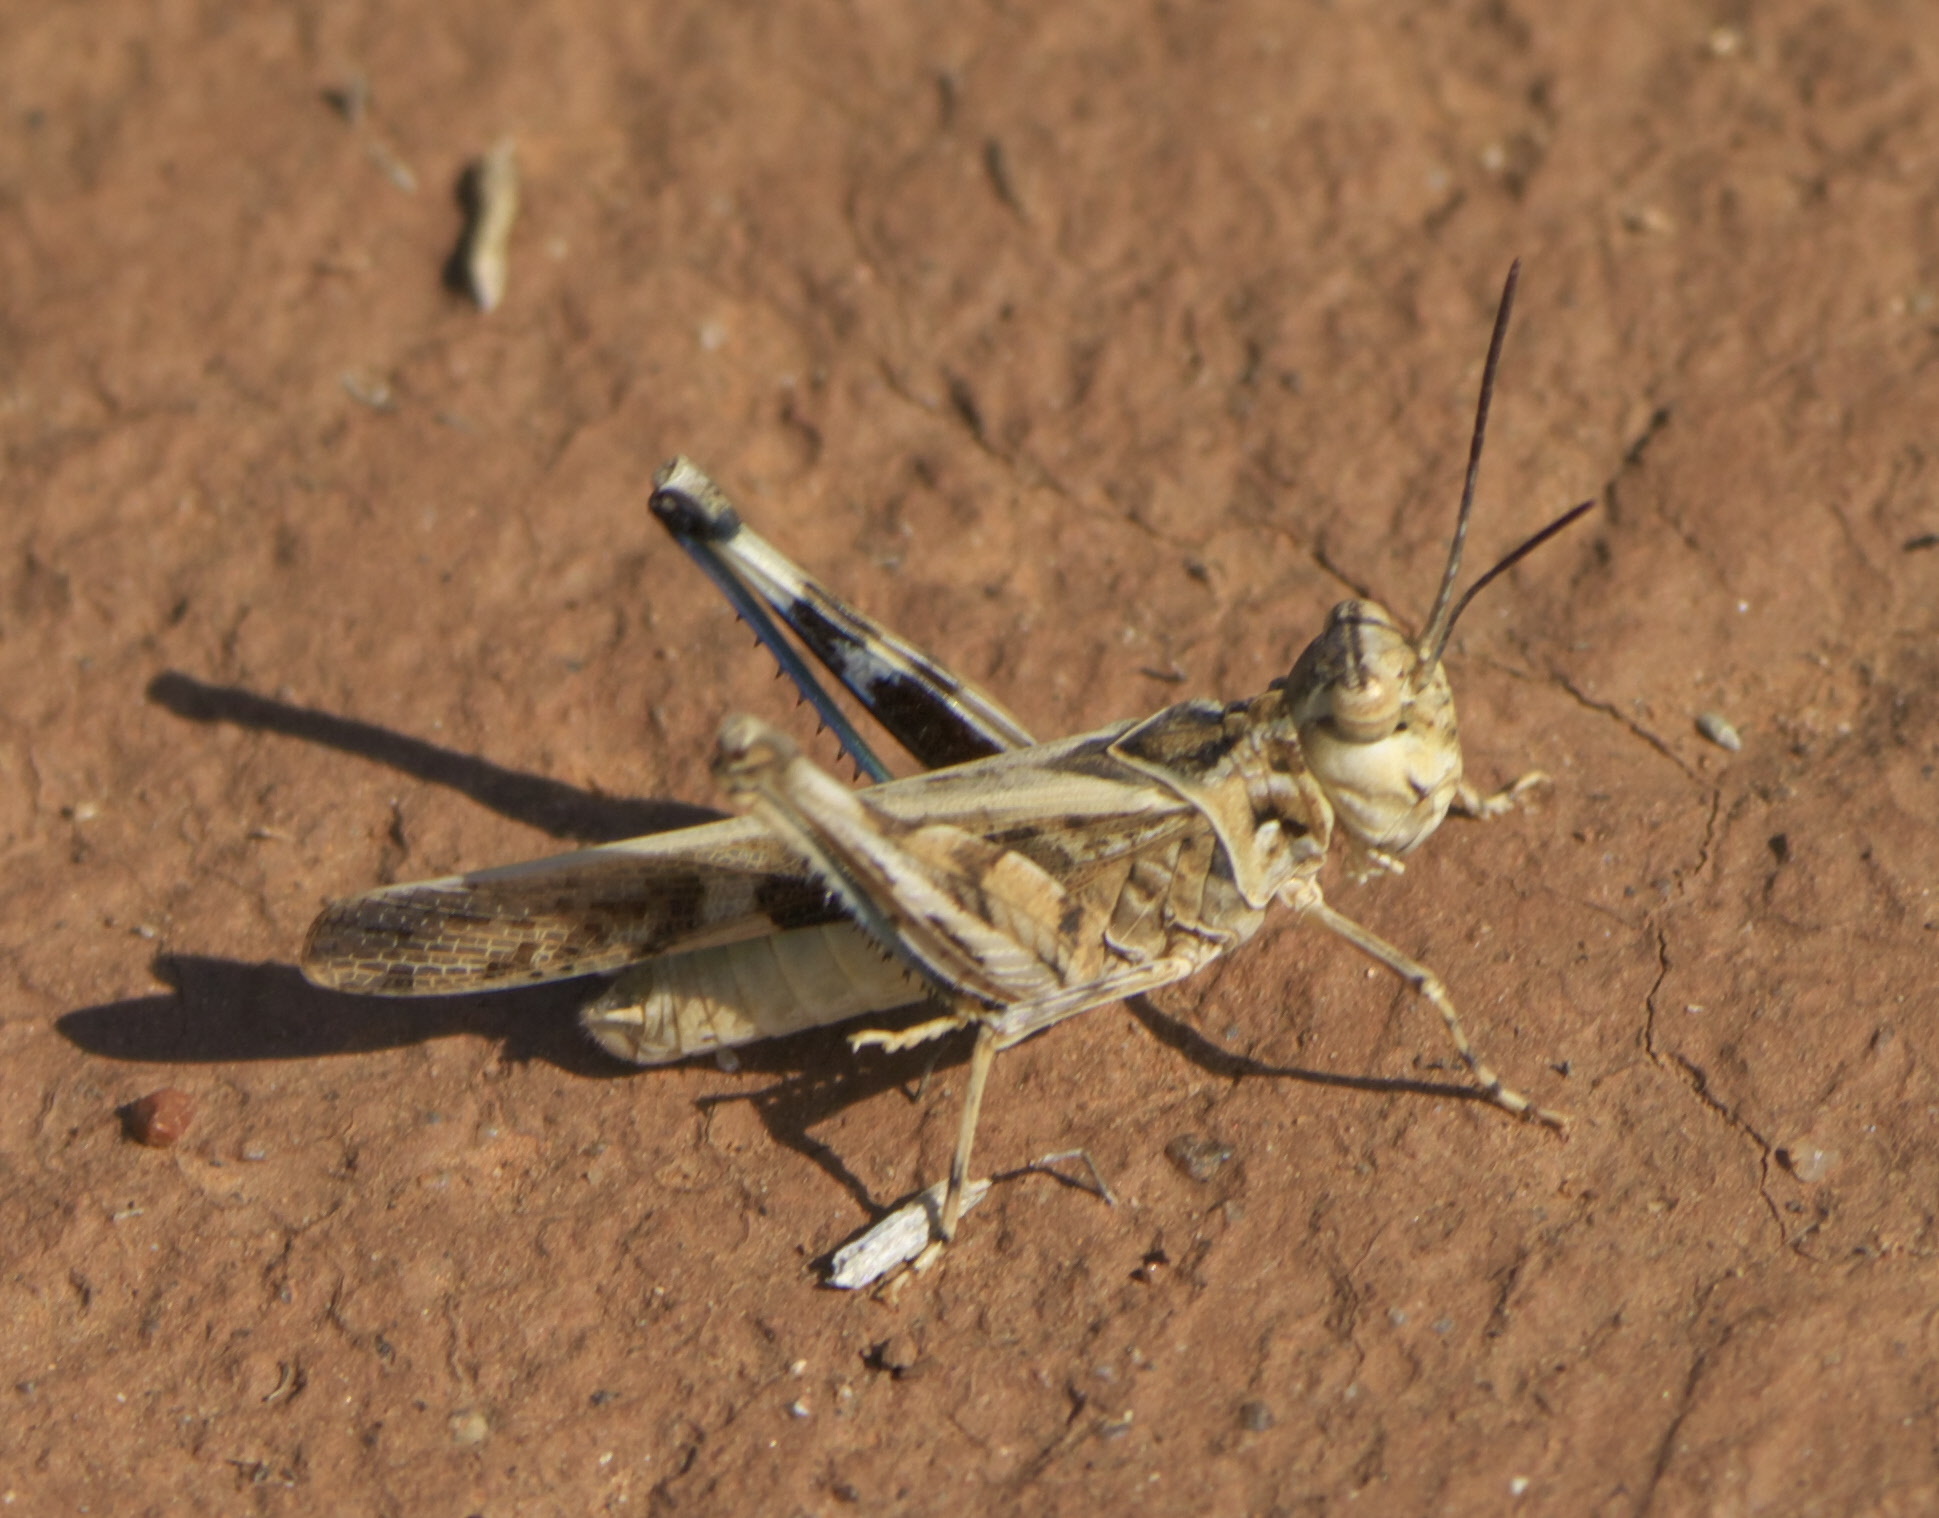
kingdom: Animalia
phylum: Arthropoda
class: Insecta
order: Orthoptera
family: Acrididae
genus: Trachyrhachys
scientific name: Trachyrhachys kiowa
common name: Kiowa grasshopper
